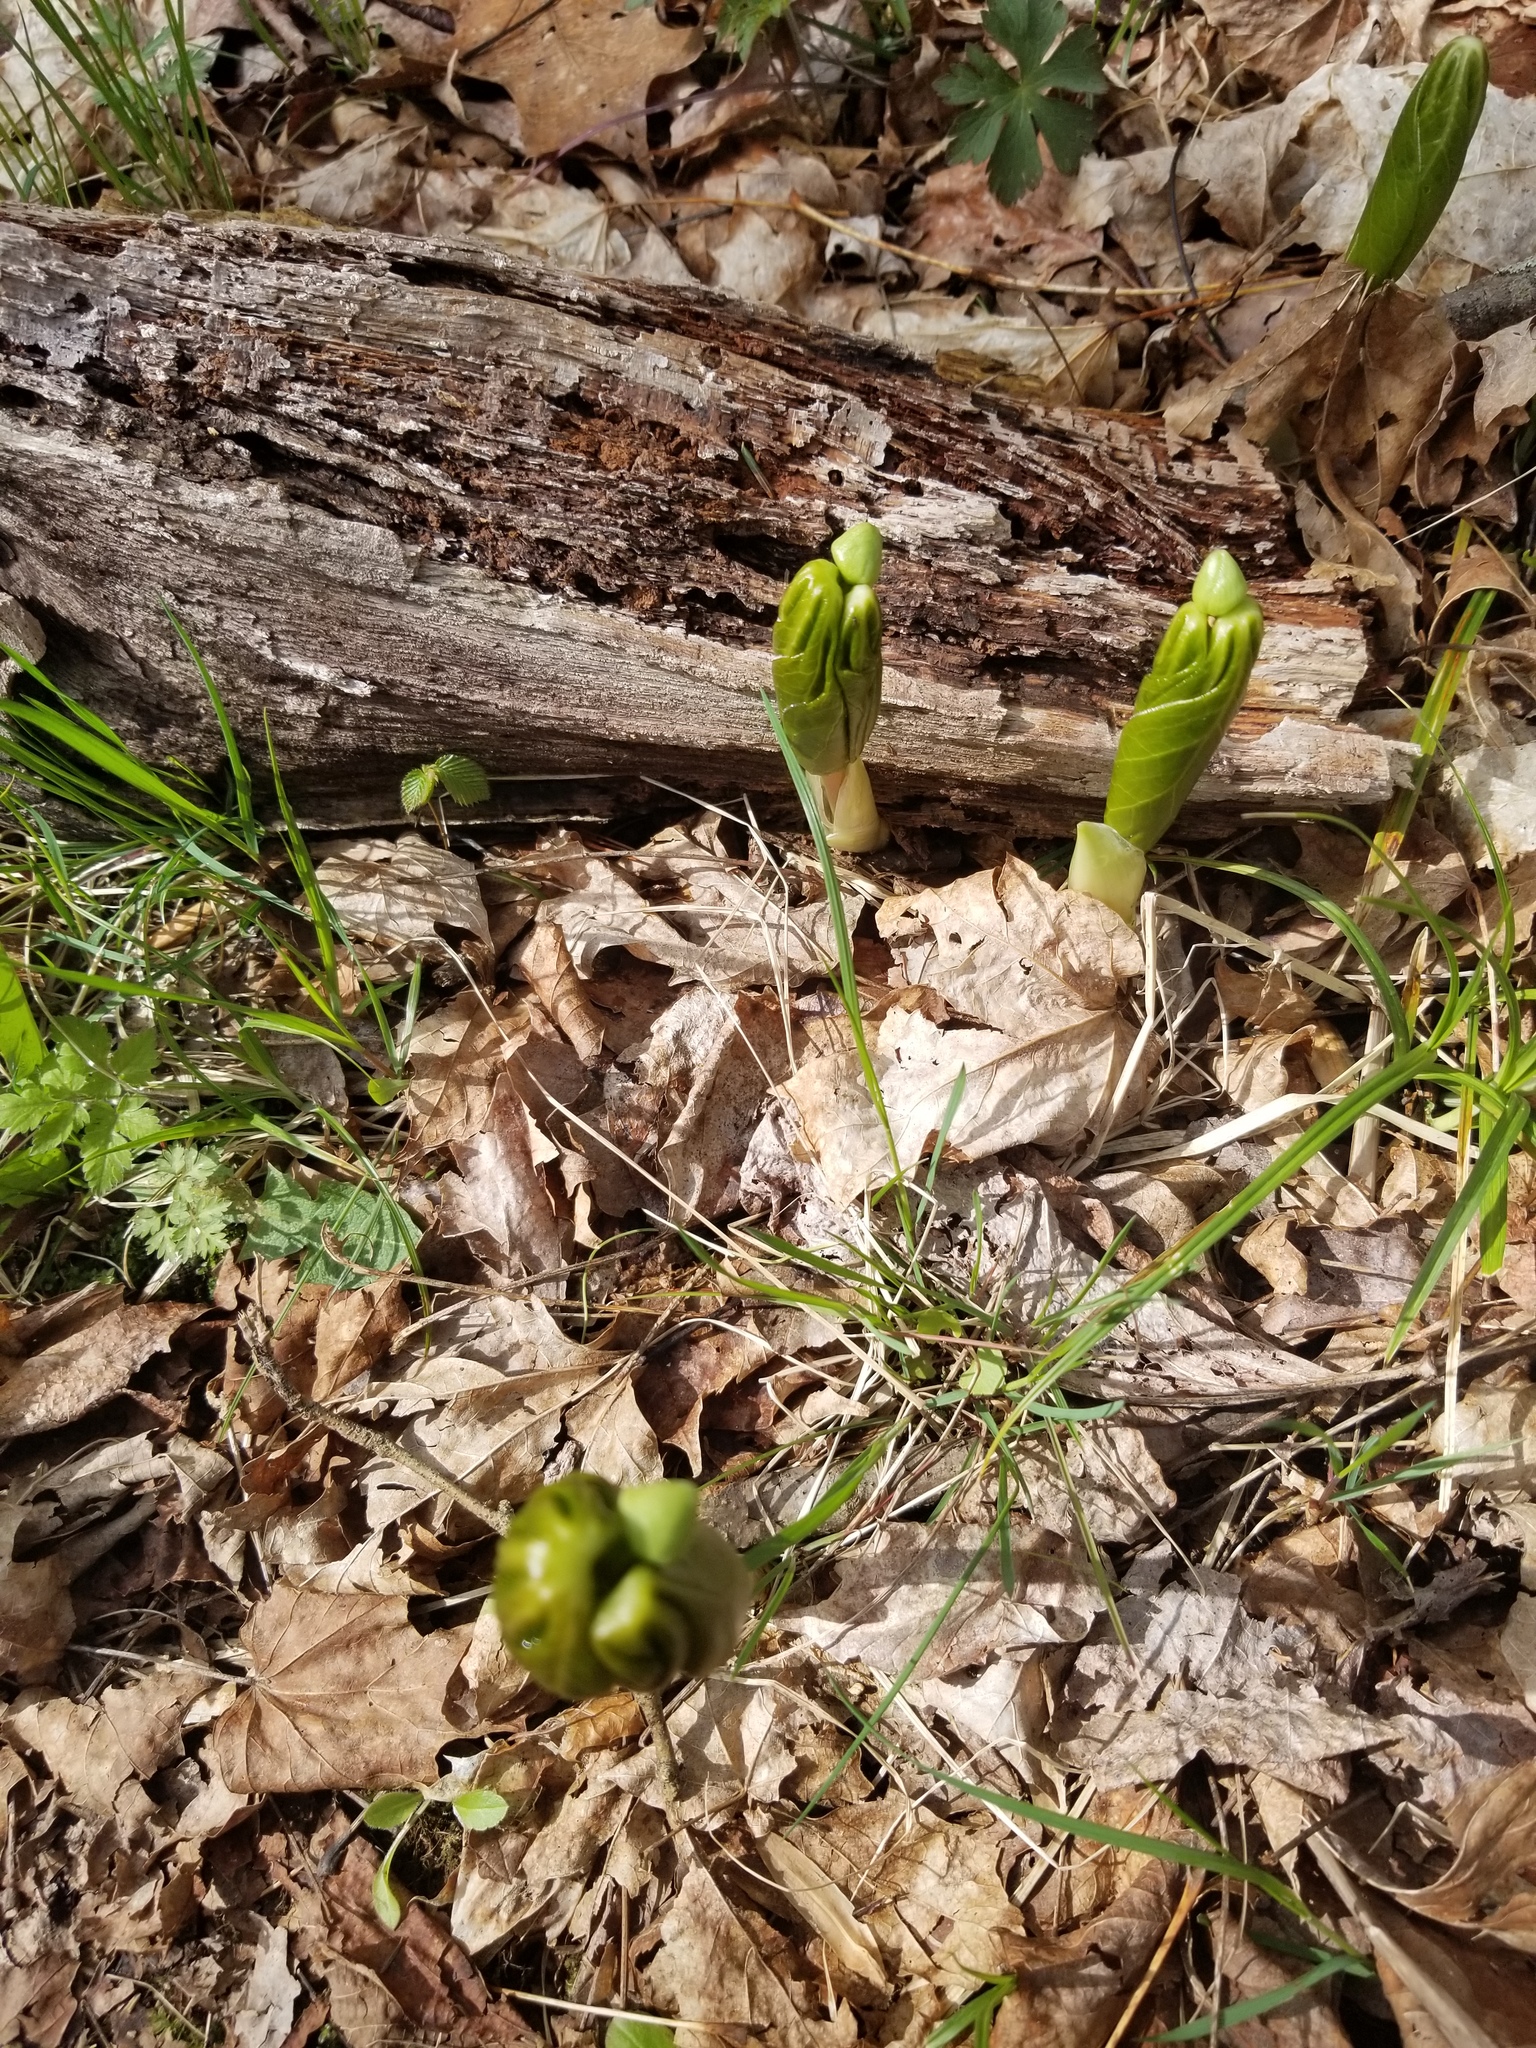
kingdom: Plantae
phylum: Tracheophyta
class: Magnoliopsida
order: Ranunculales
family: Berberidaceae
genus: Podophyllum
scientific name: Podophyllum peltatum
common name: Wild mandrake
